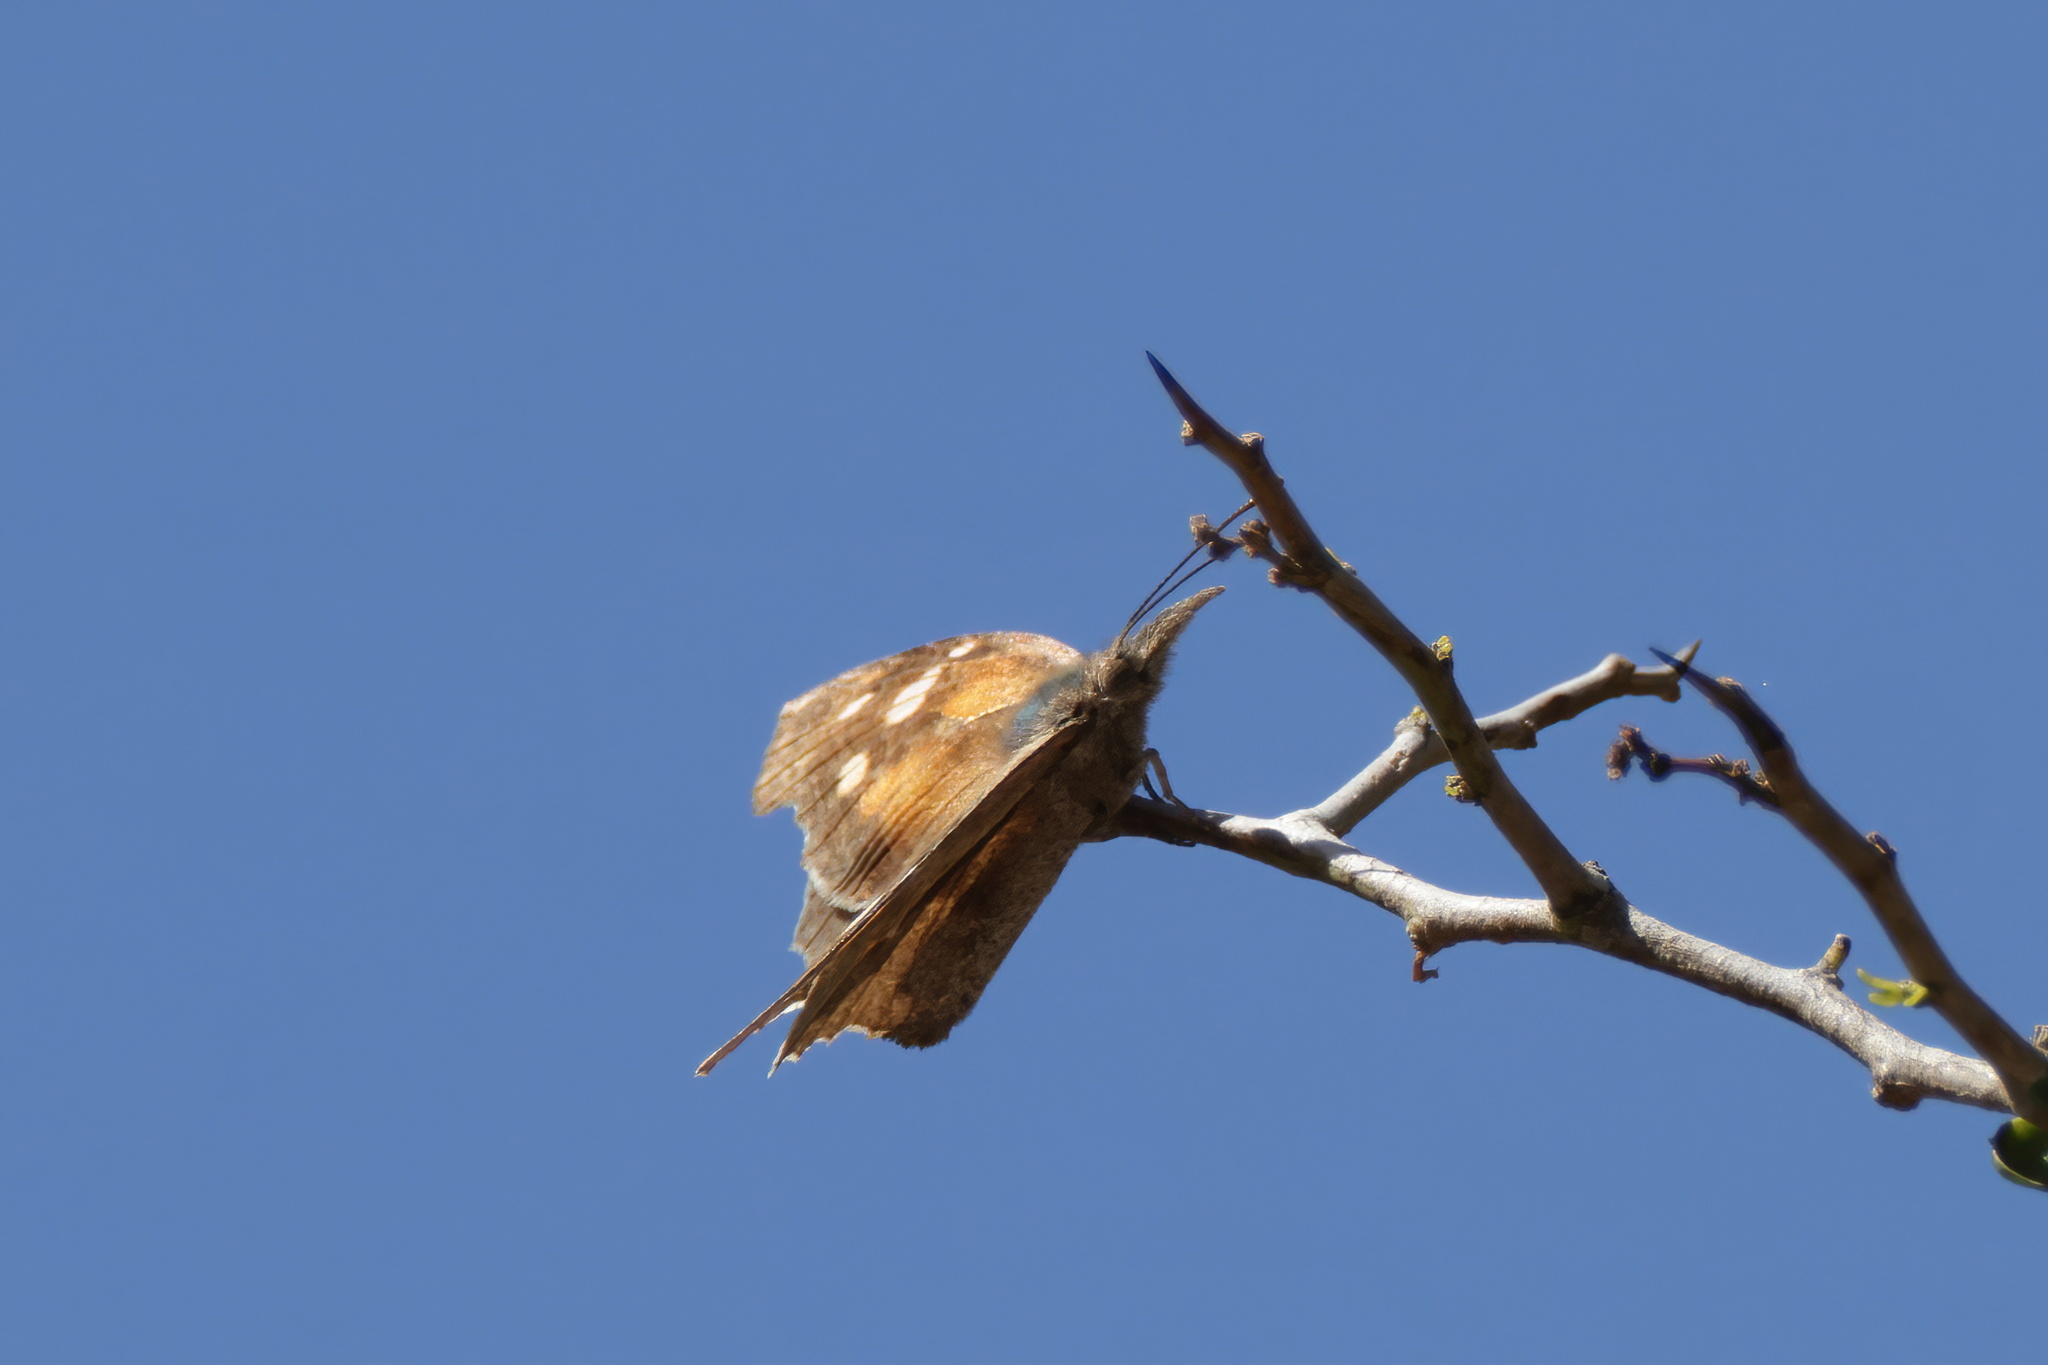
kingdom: Animalia
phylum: Arthropoda
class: Insecta
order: Lepidoptera
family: Nymphalidae
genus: Libytheana
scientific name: Libytheana carinenta
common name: American snout
